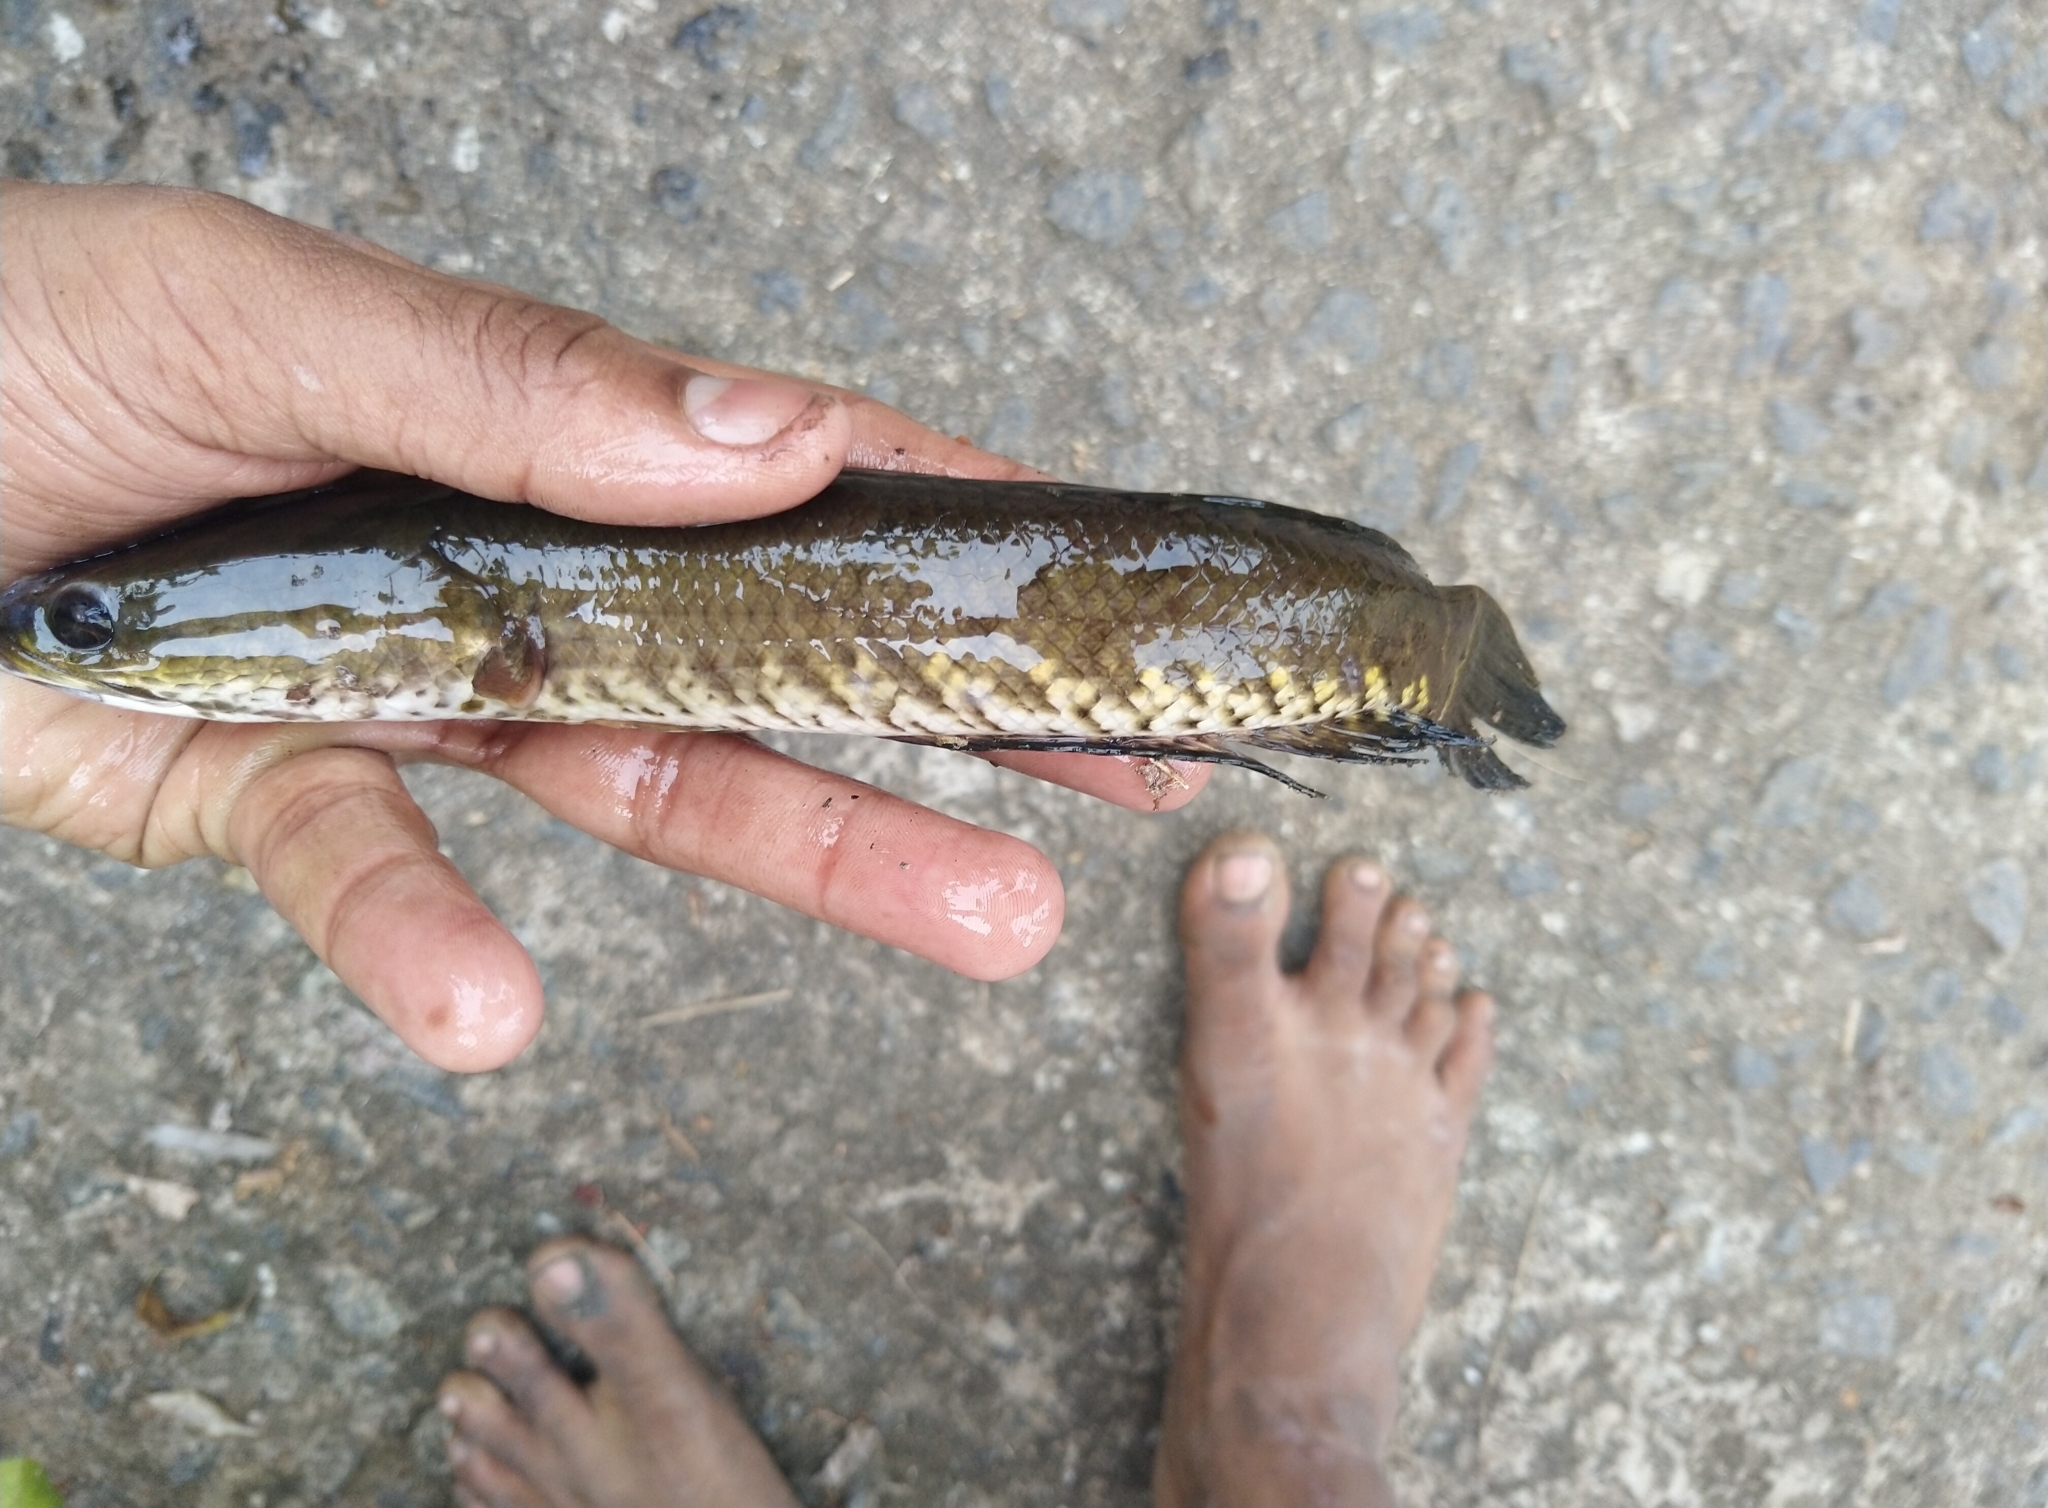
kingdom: Animalia
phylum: Chordata
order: Perciformes
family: Channidae
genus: Channa
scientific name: Channa striata
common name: Striped snakehead
